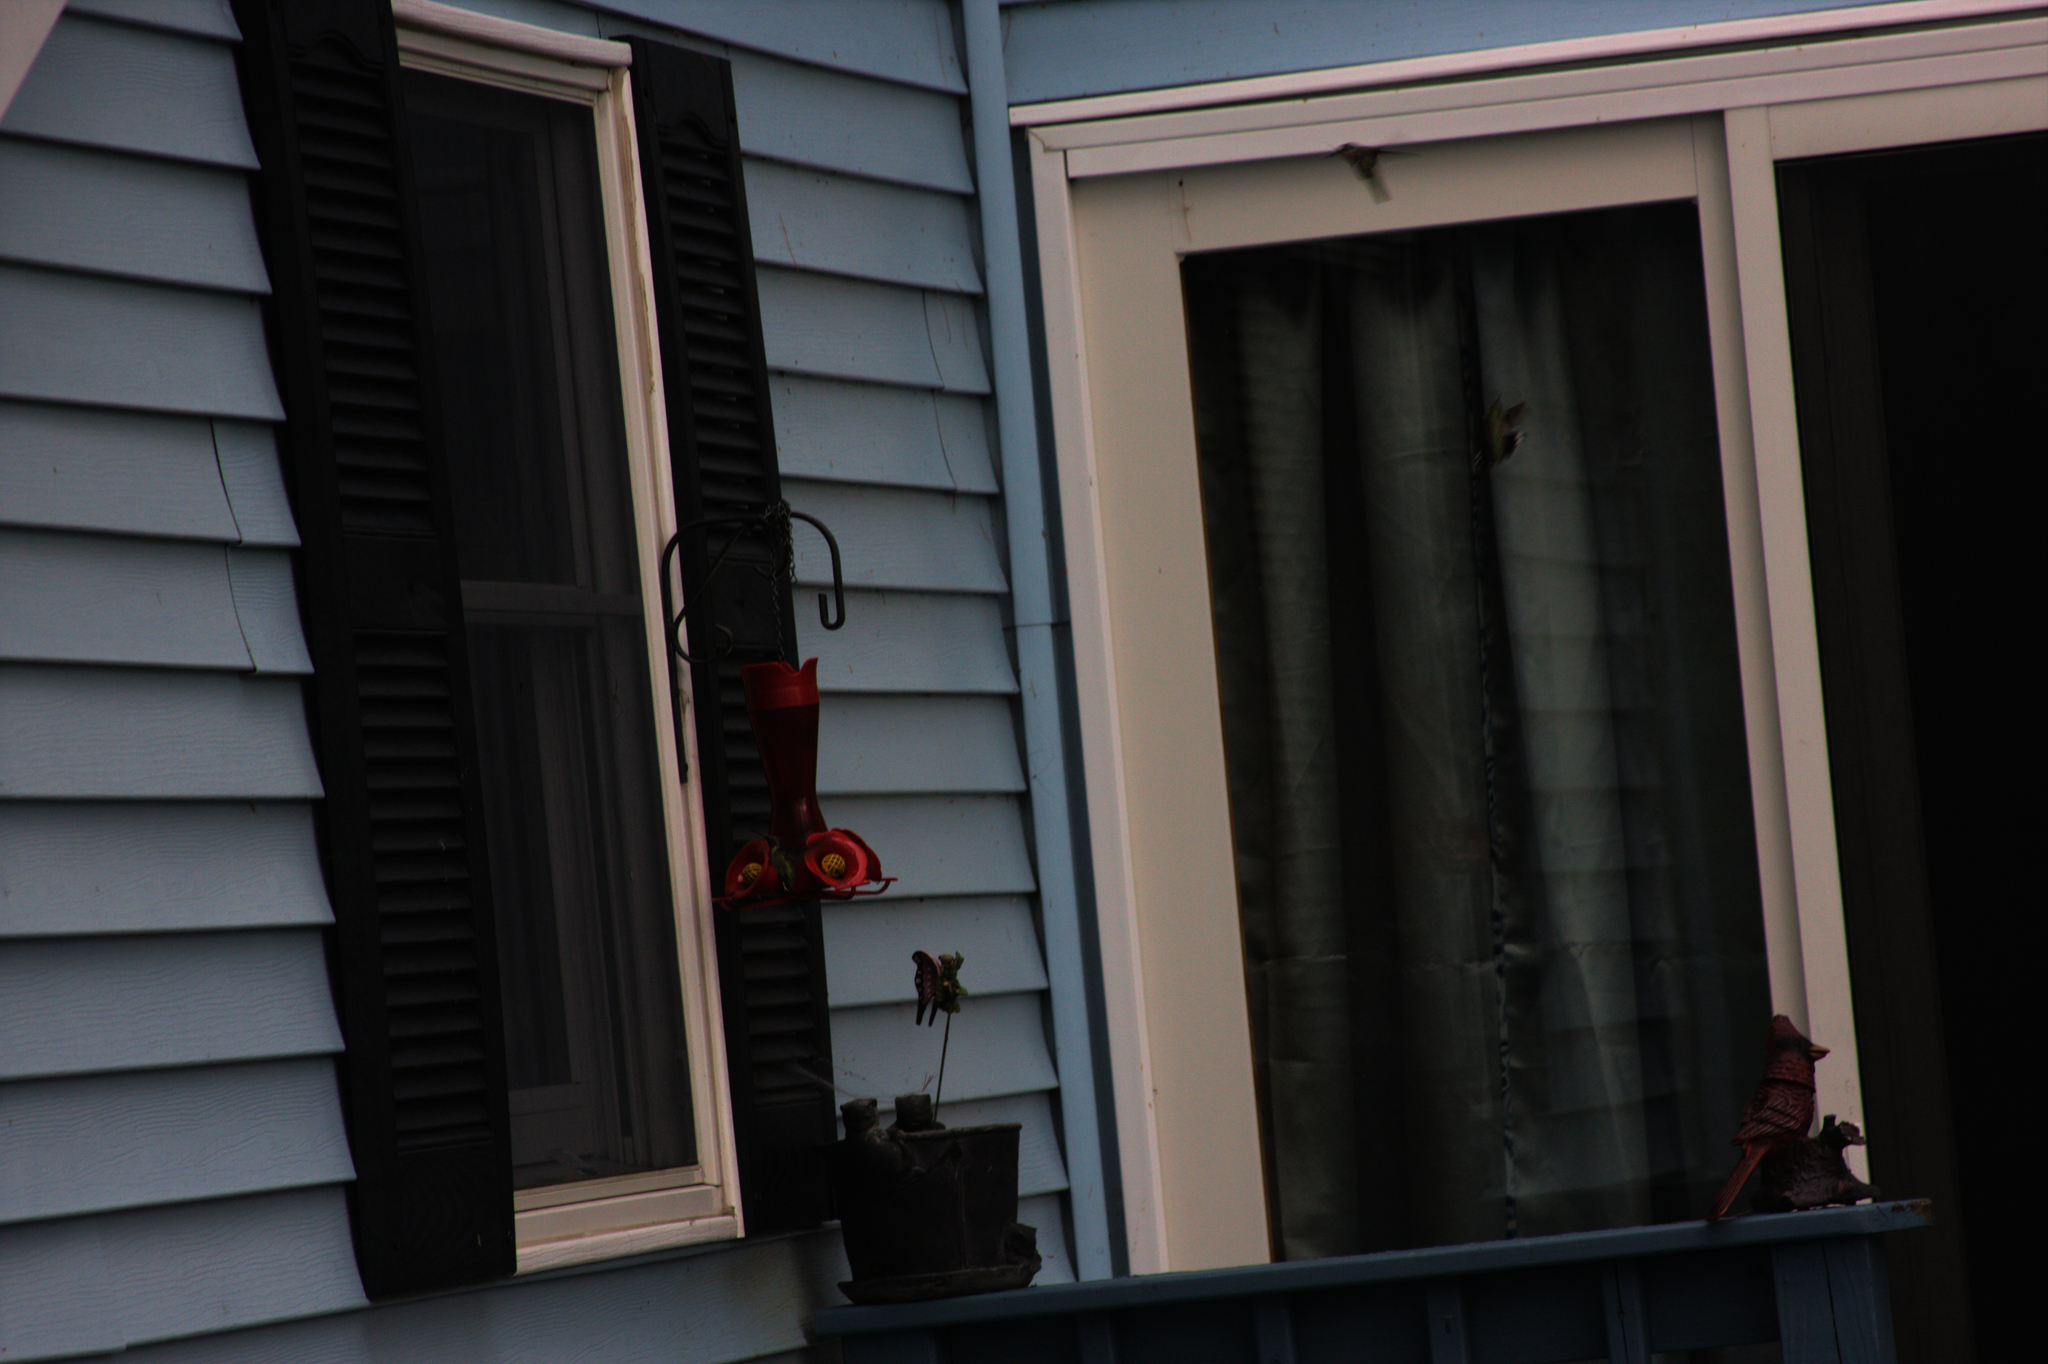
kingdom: Animalia
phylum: Chordata
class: Aves
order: Apodiformes
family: Trochilidae
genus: Archilochus
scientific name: Archilochus colubris
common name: Ruby-throated hummingbird
